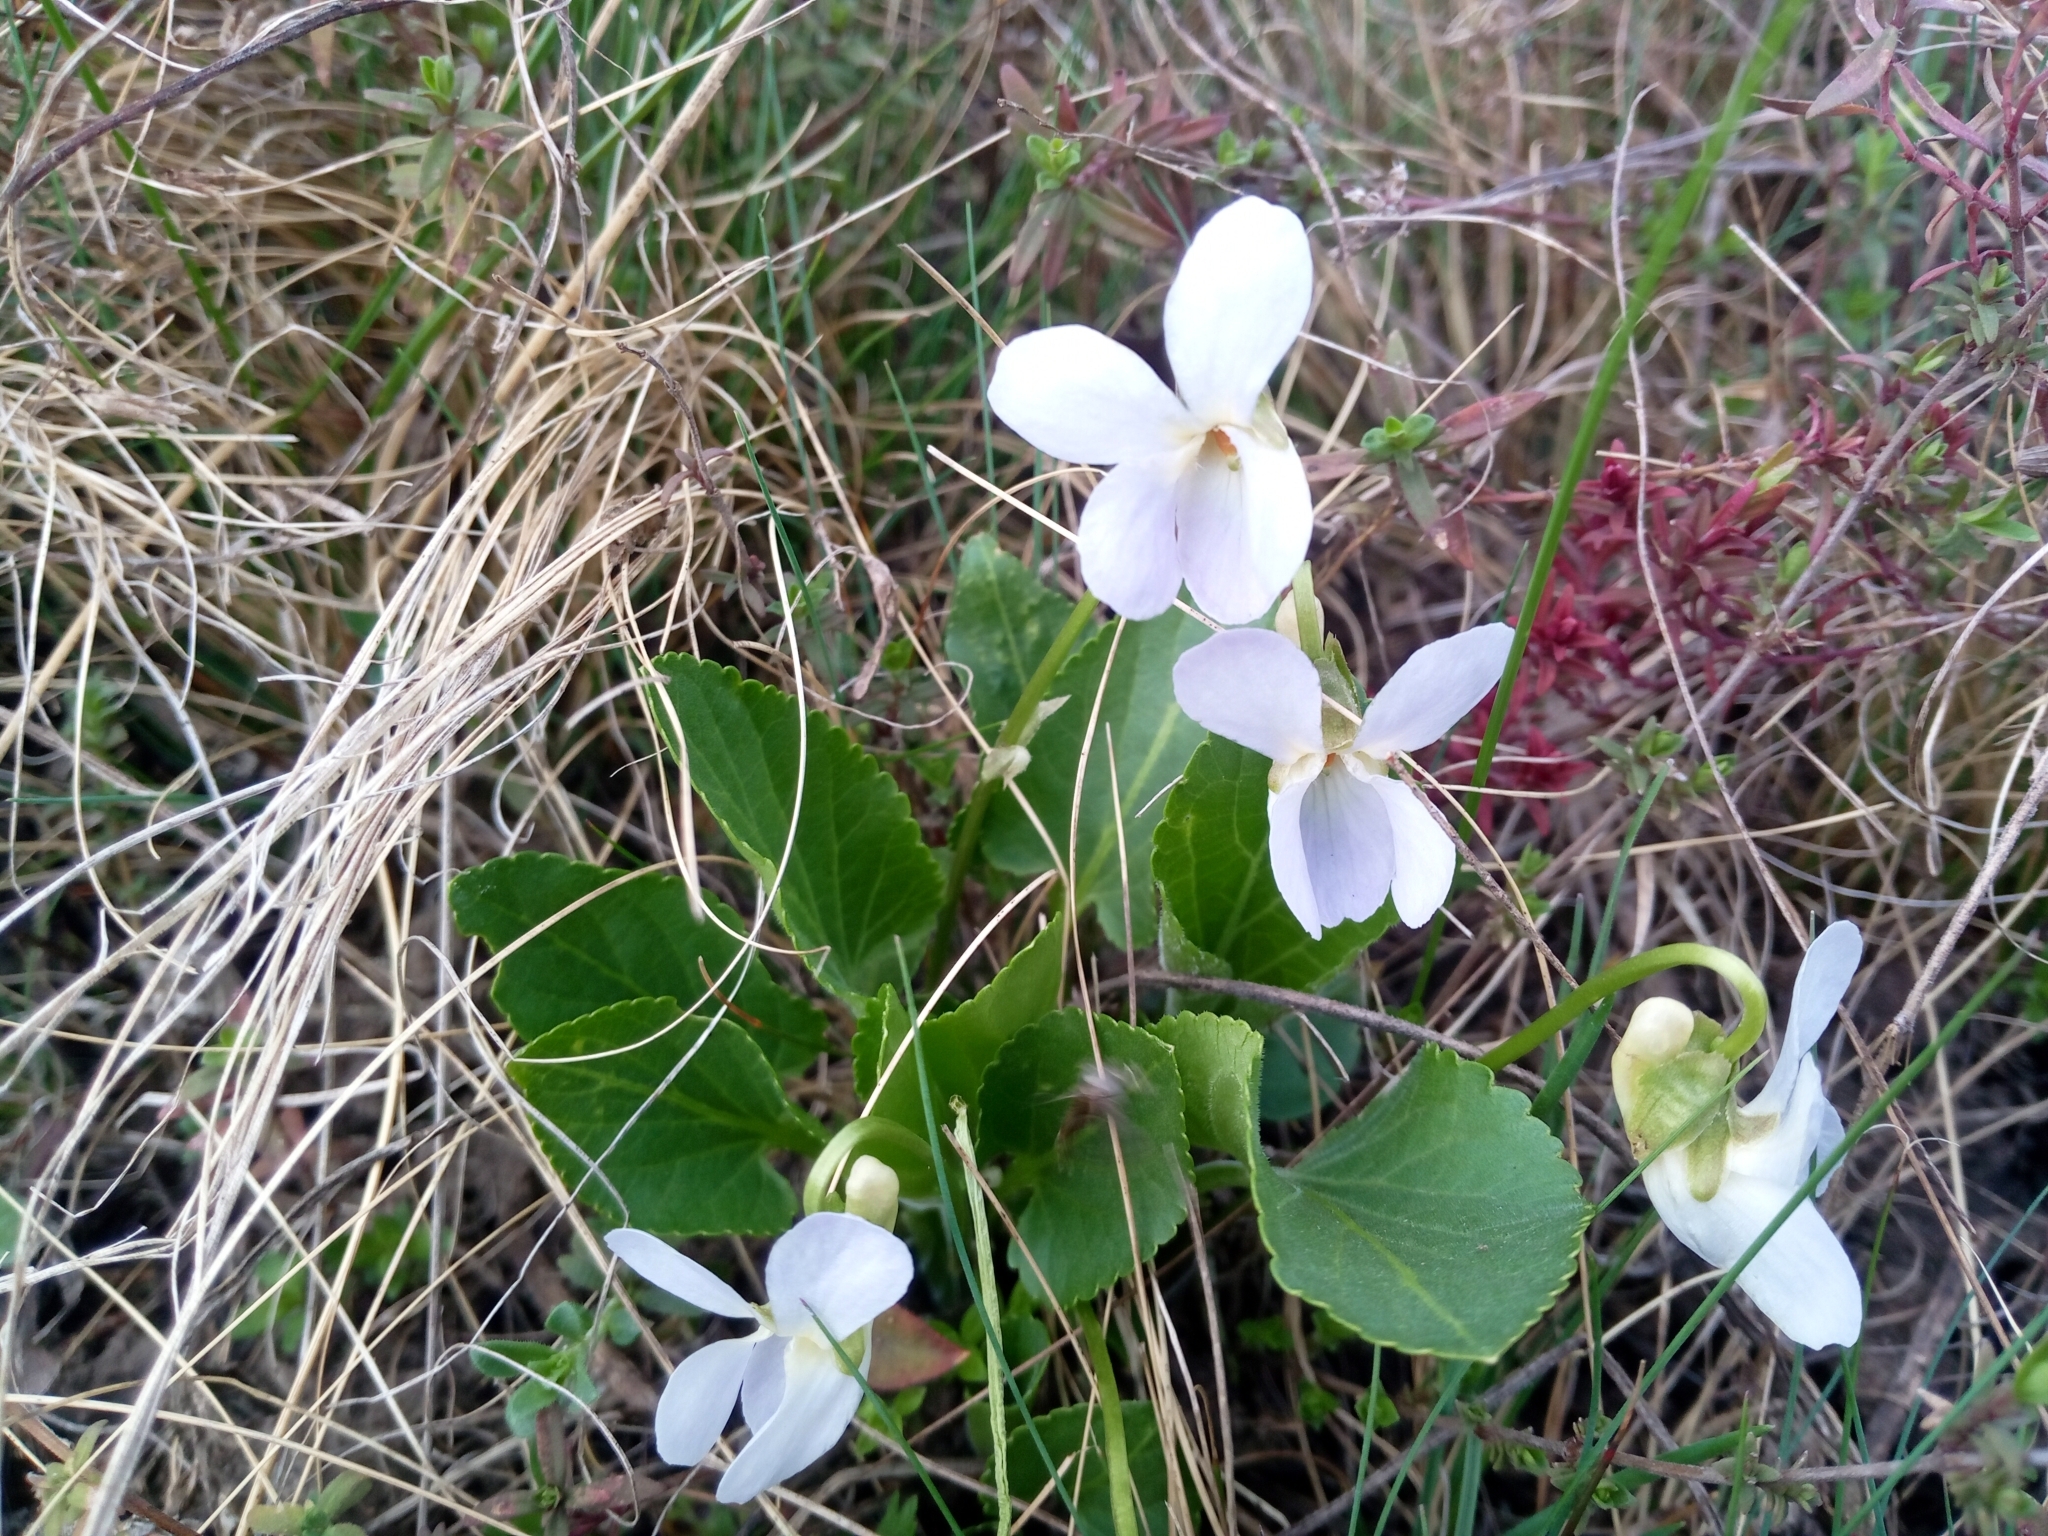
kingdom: Plantae
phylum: Tracheophyta
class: Magnoliopsida
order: Malpighiales
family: Violaceae
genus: Viola
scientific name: Viola ambigua
